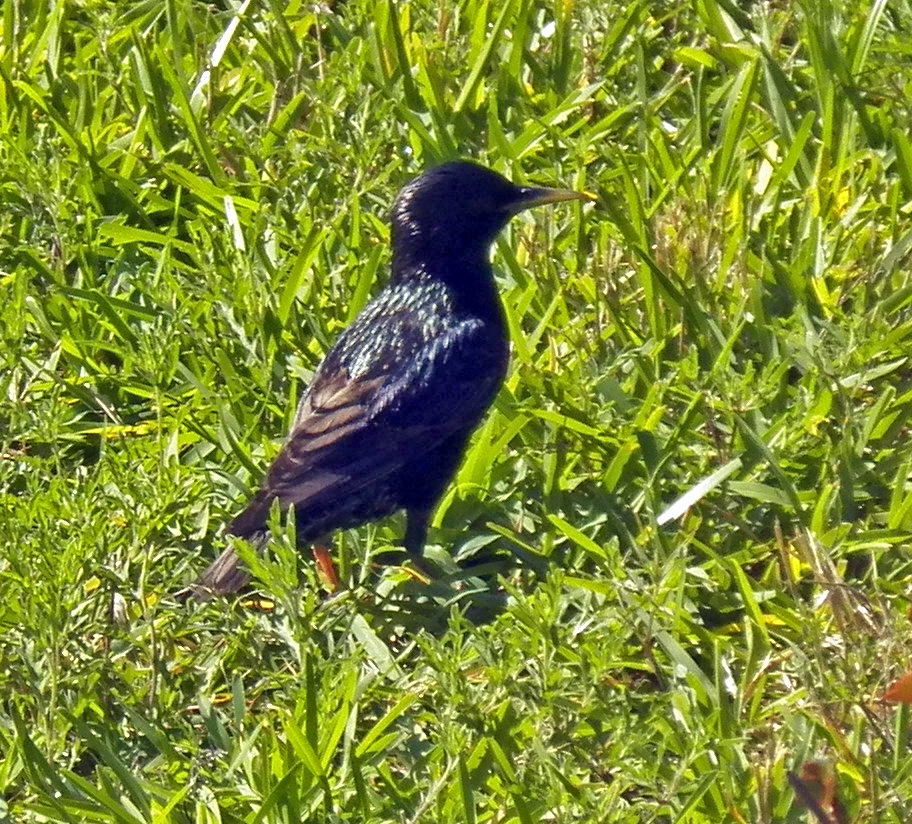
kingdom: Animalia
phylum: Chordata
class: Aves
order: Passeriformes
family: Sturnidae
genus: Sturnus
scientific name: Sturnus vulgaris
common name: Common starling
